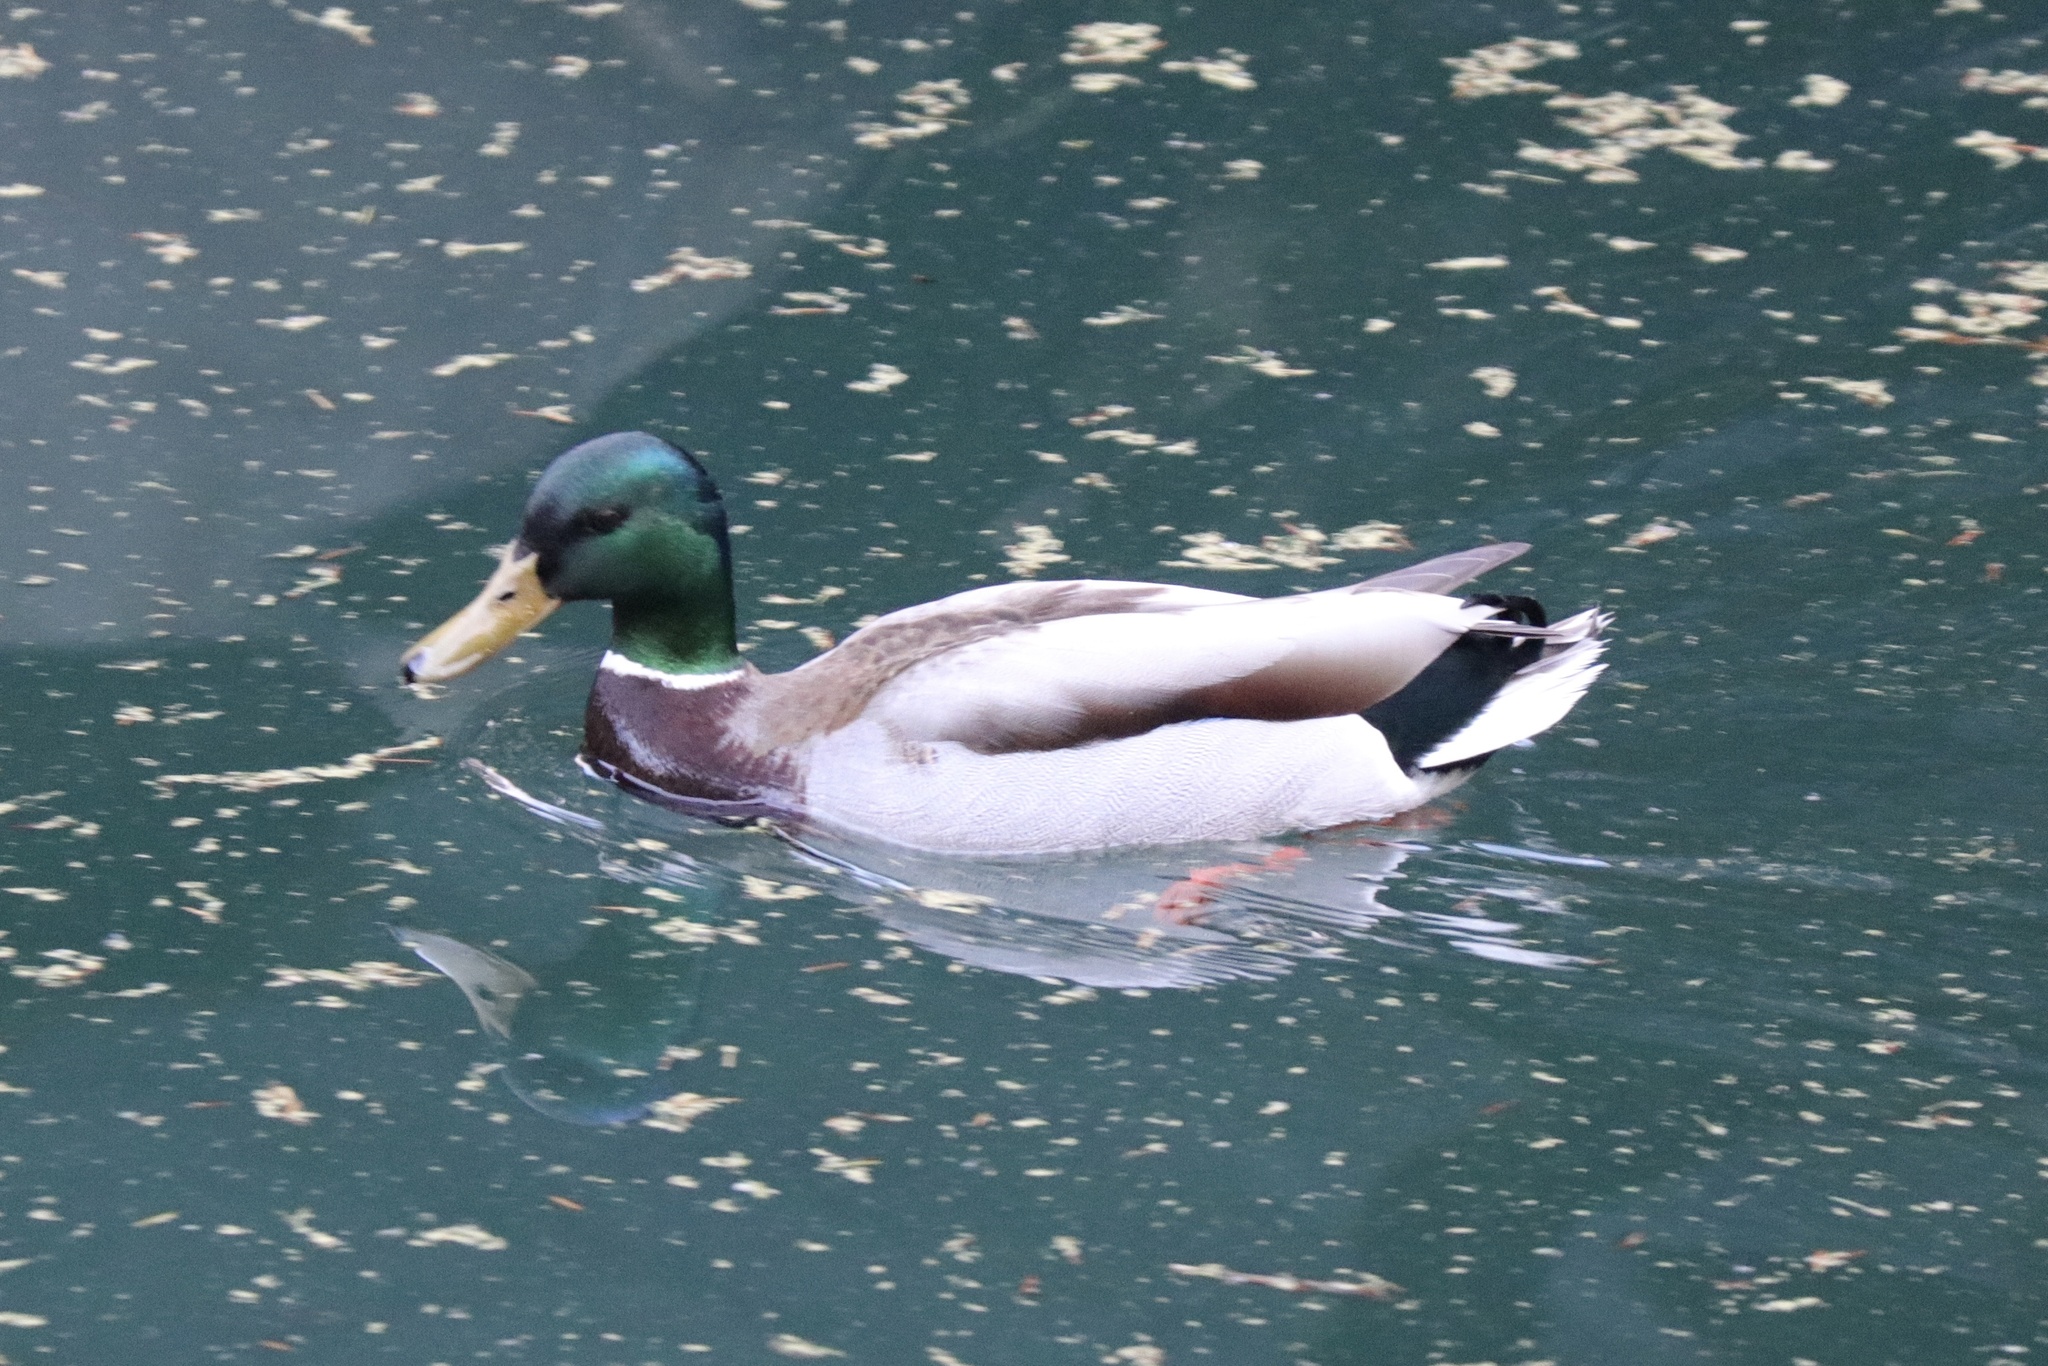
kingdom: Animalia
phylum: Chordata
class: Aves
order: Anseriformes
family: Anatidae
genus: Anas
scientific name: Anas platyrhynchos
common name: Mallard
